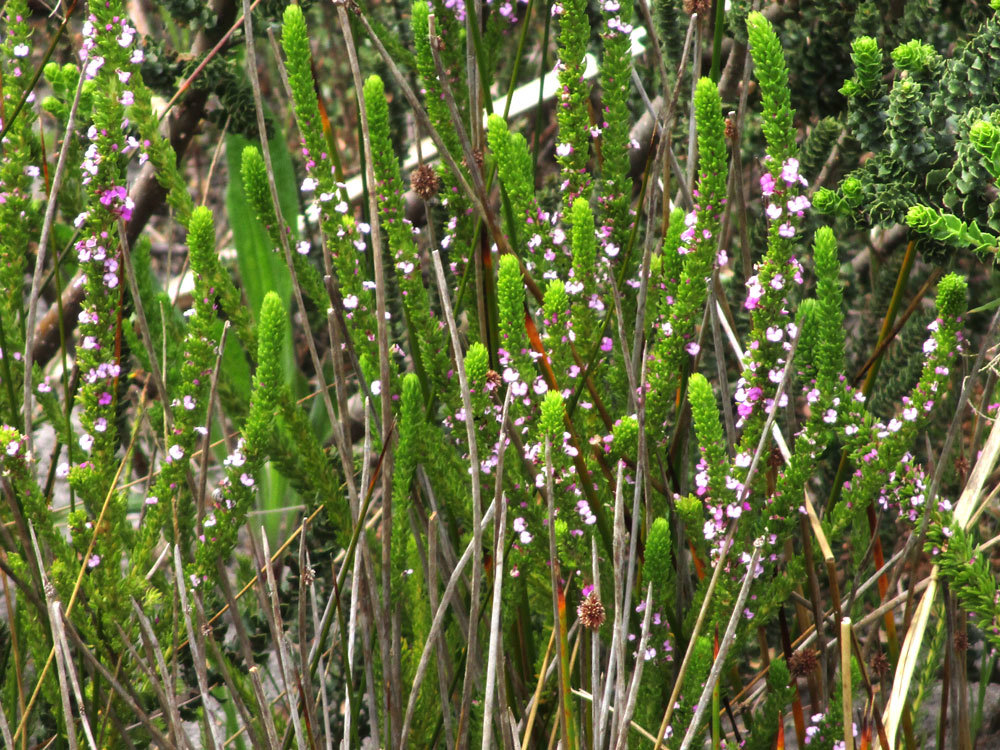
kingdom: Plantae
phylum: Tracheophyta
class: Magnoliopsida
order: Fabales
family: Polygalaceae
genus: Muraltia
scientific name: Muraltia mitior
